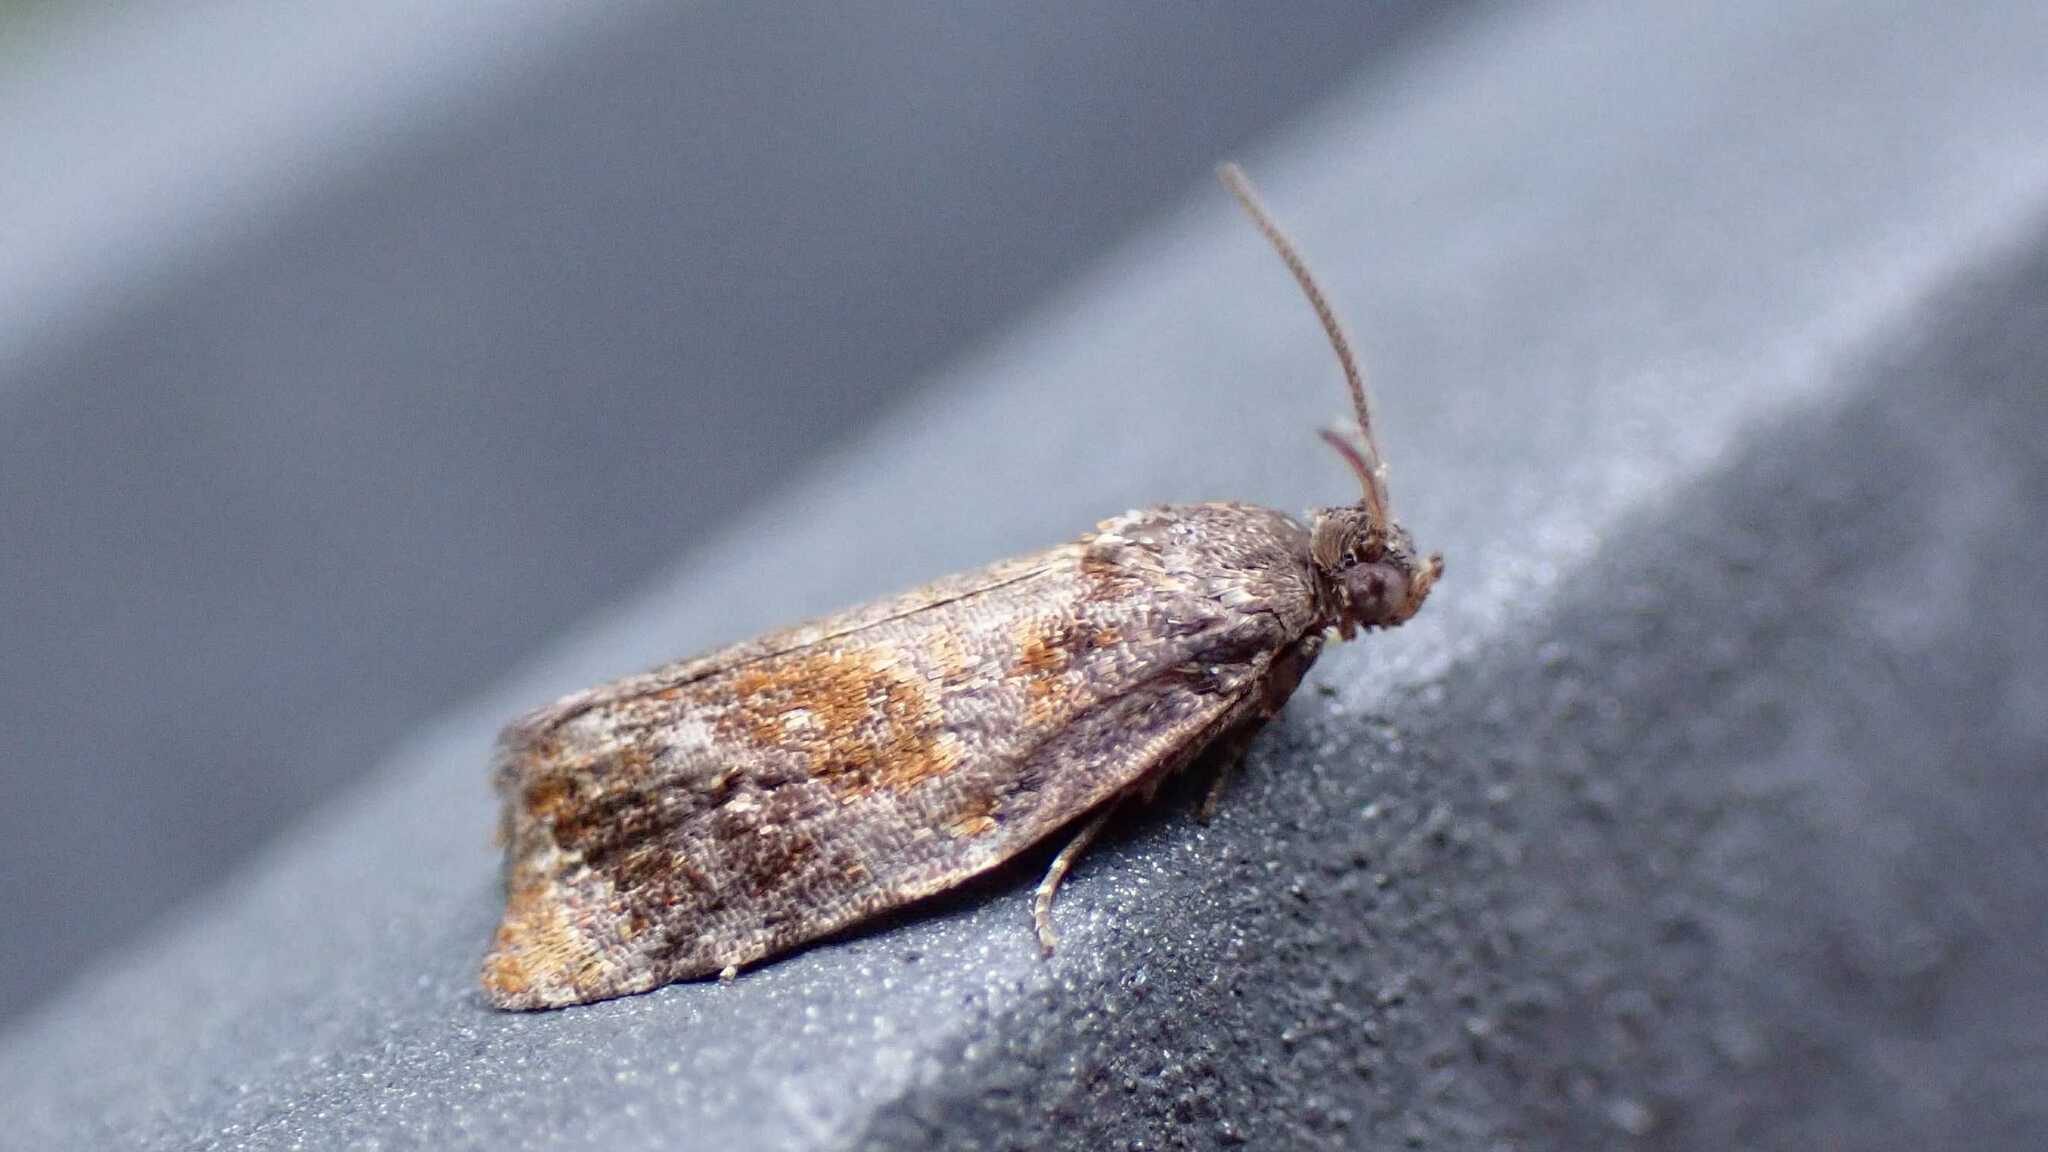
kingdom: Animalia
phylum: Arthropoda
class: Insecta
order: Lepidoptera
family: Tortricidae
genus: Ditula
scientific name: Ditula angustiorana
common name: Red-barred tortrix
